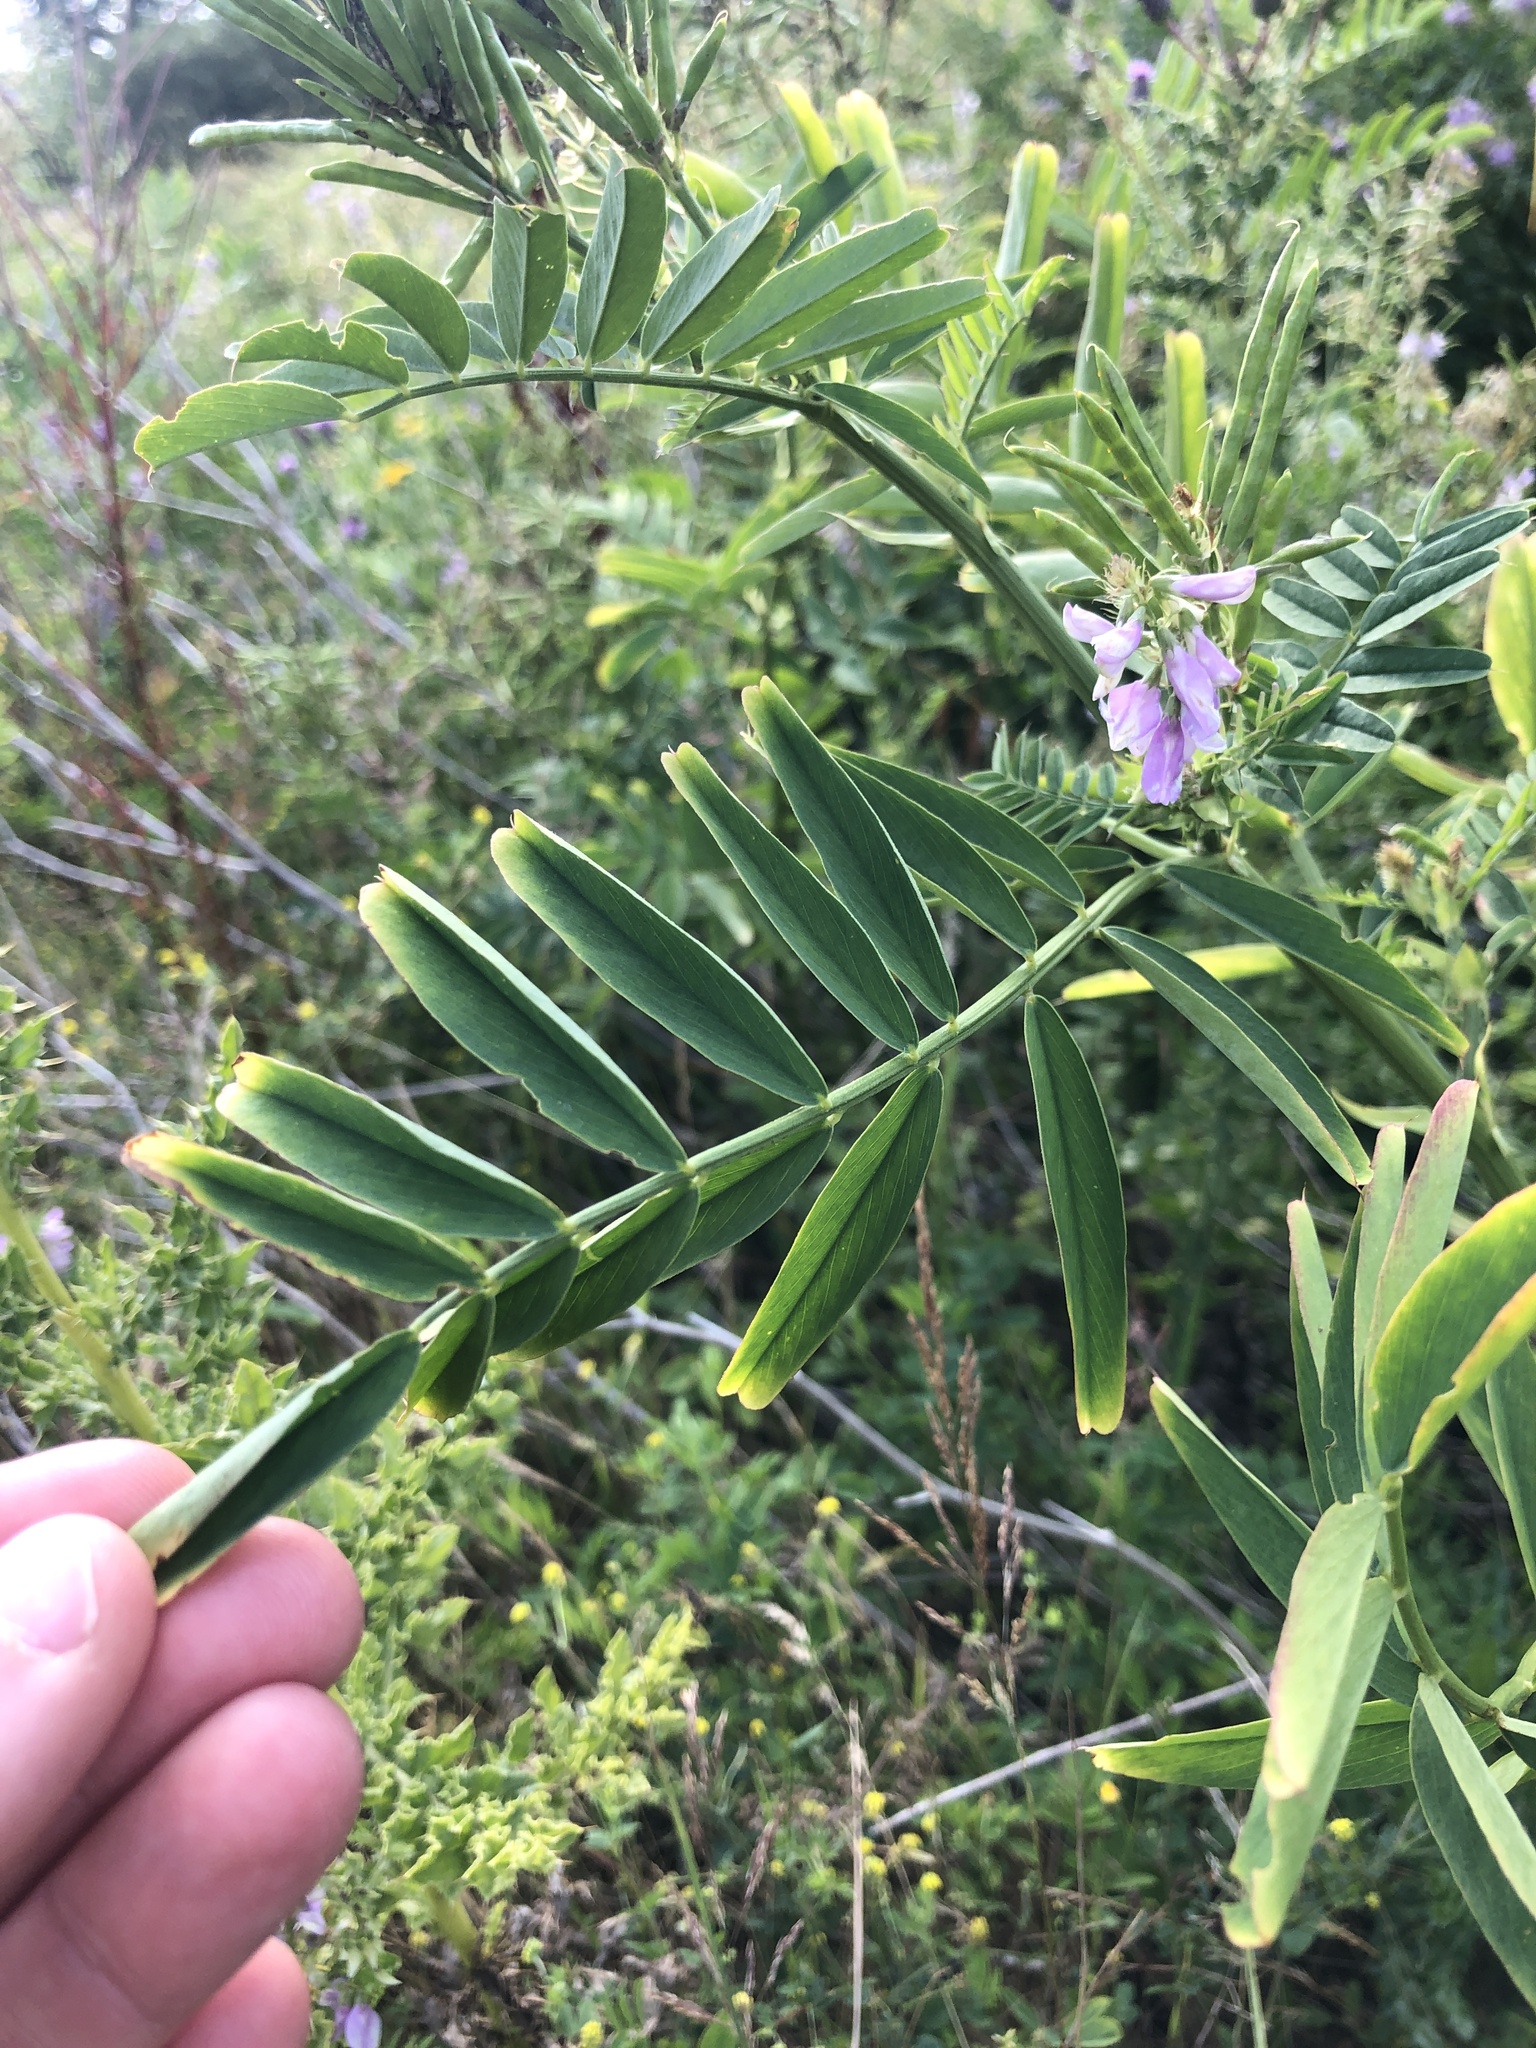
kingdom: Plantae
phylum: Tracheophyta
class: Magnoliopsida
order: Fabales
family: Fabaceae
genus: Galega
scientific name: Galega officinalis
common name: Goat's-rue
